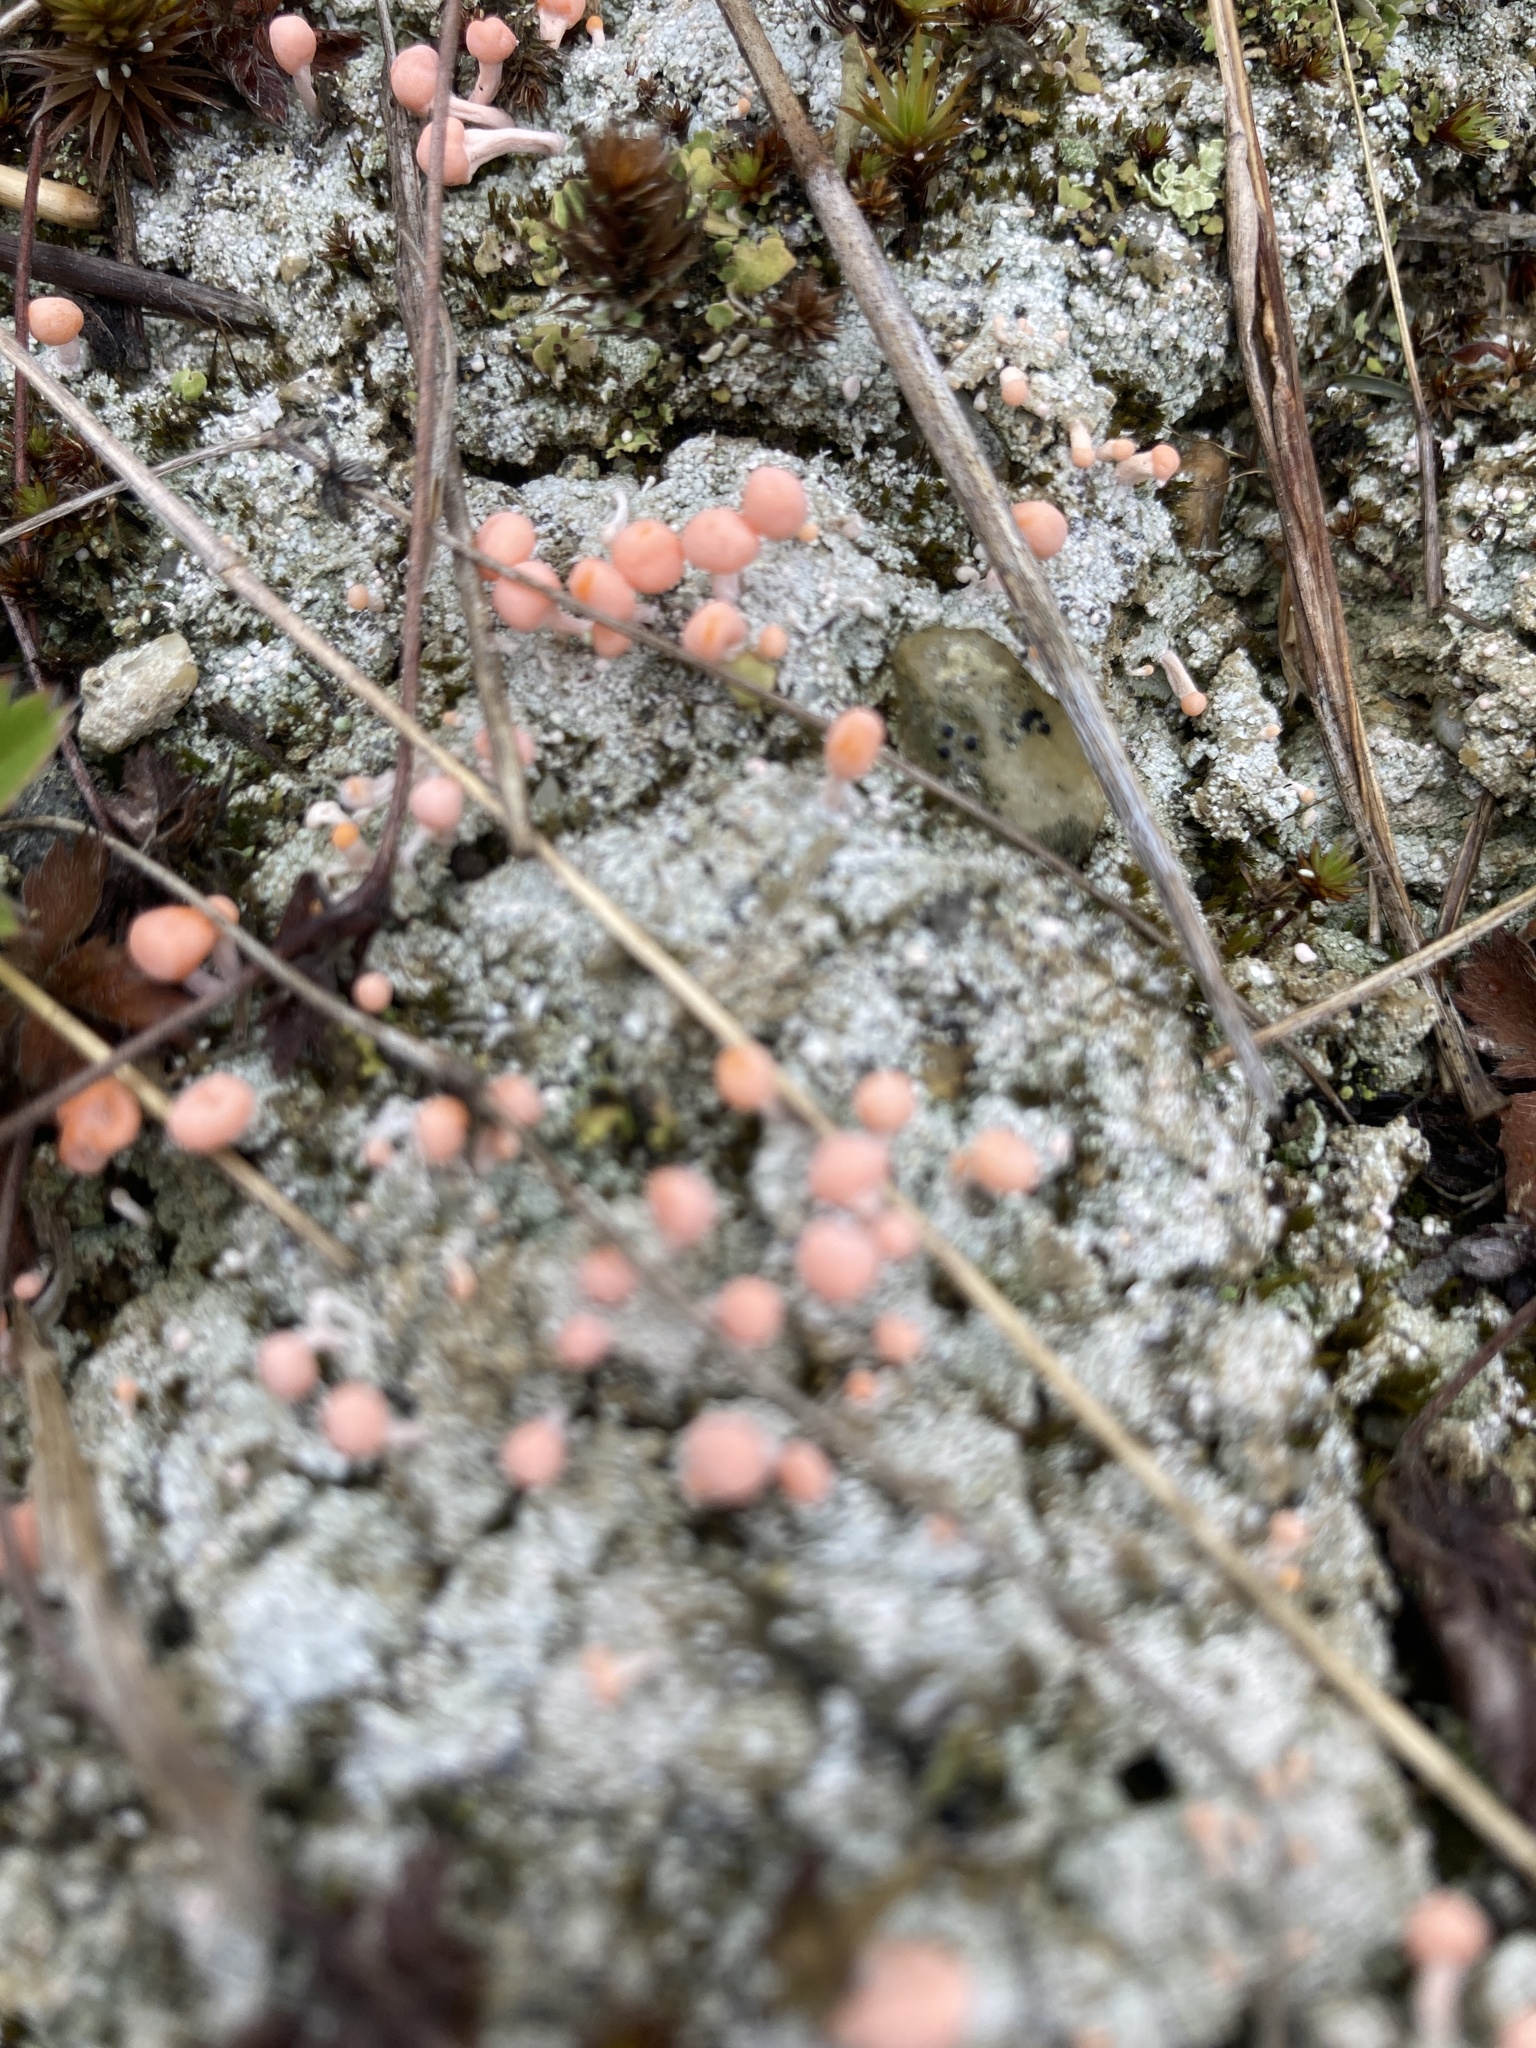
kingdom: Fungi
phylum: Ascomycota
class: Lecanoromycetes
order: Pertusariales
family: Icmadophilaceae
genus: Dibaeis
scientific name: Dibaeis baeomyces
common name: Pink earth lichen
